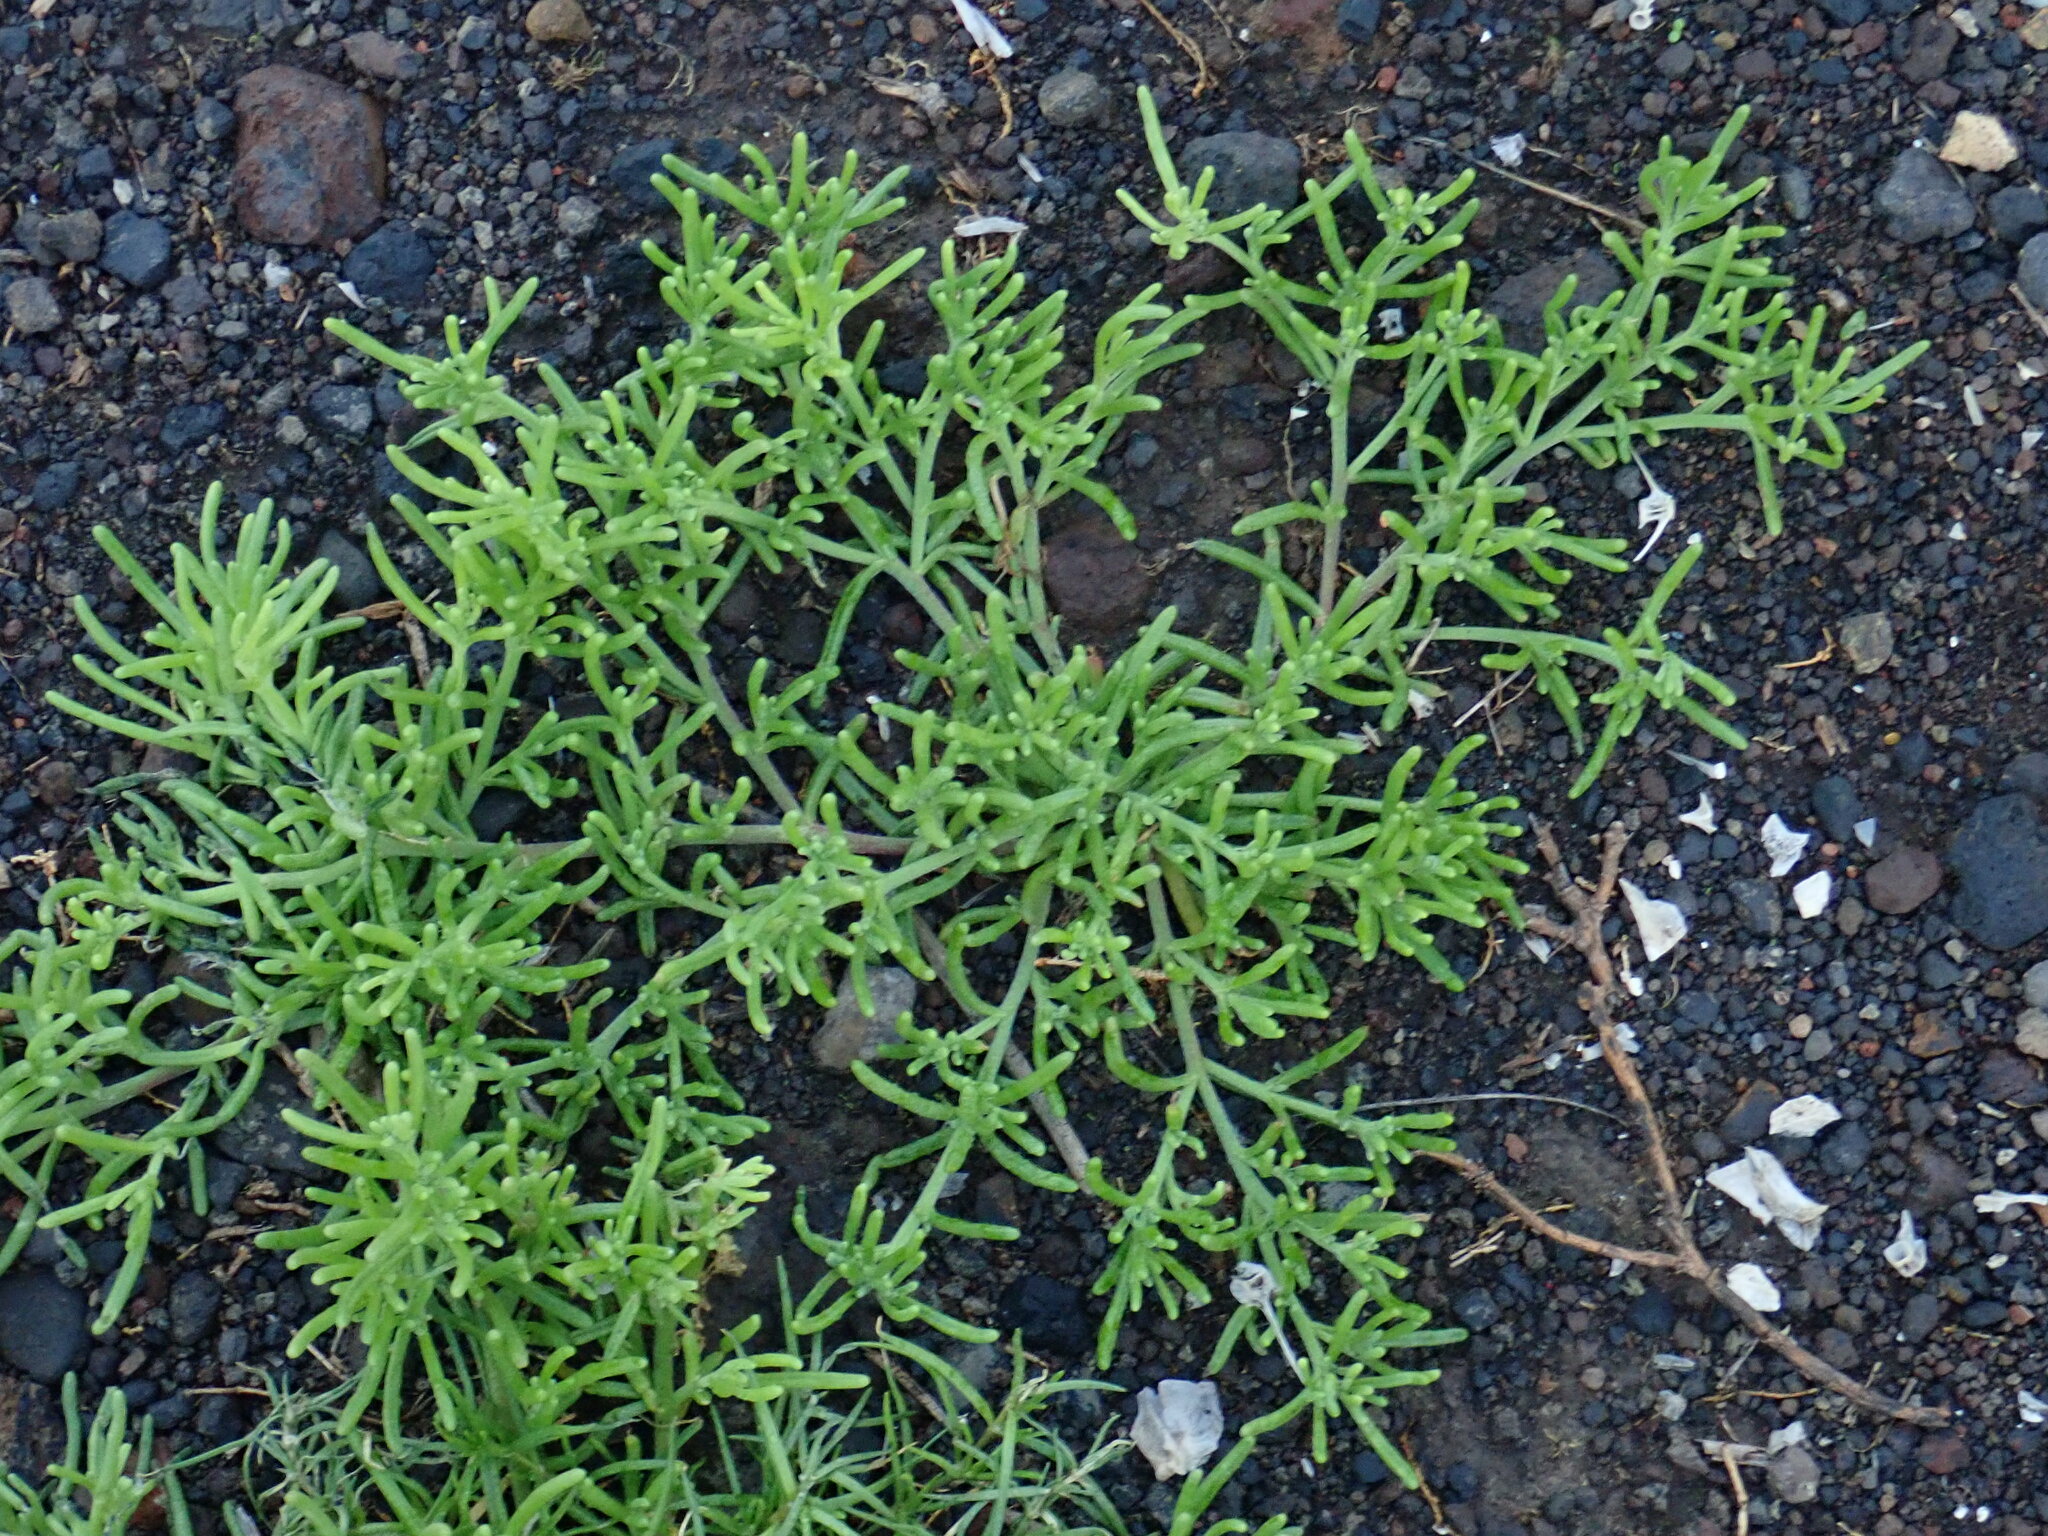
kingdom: Plantae
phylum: Tracheophyta
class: Magnoliopsida
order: Caryophyllales
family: Aizoaceae
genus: Mesembryanthemum
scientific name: Mesembryanthemum nodiflorum
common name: Slenderleaf iceplant
